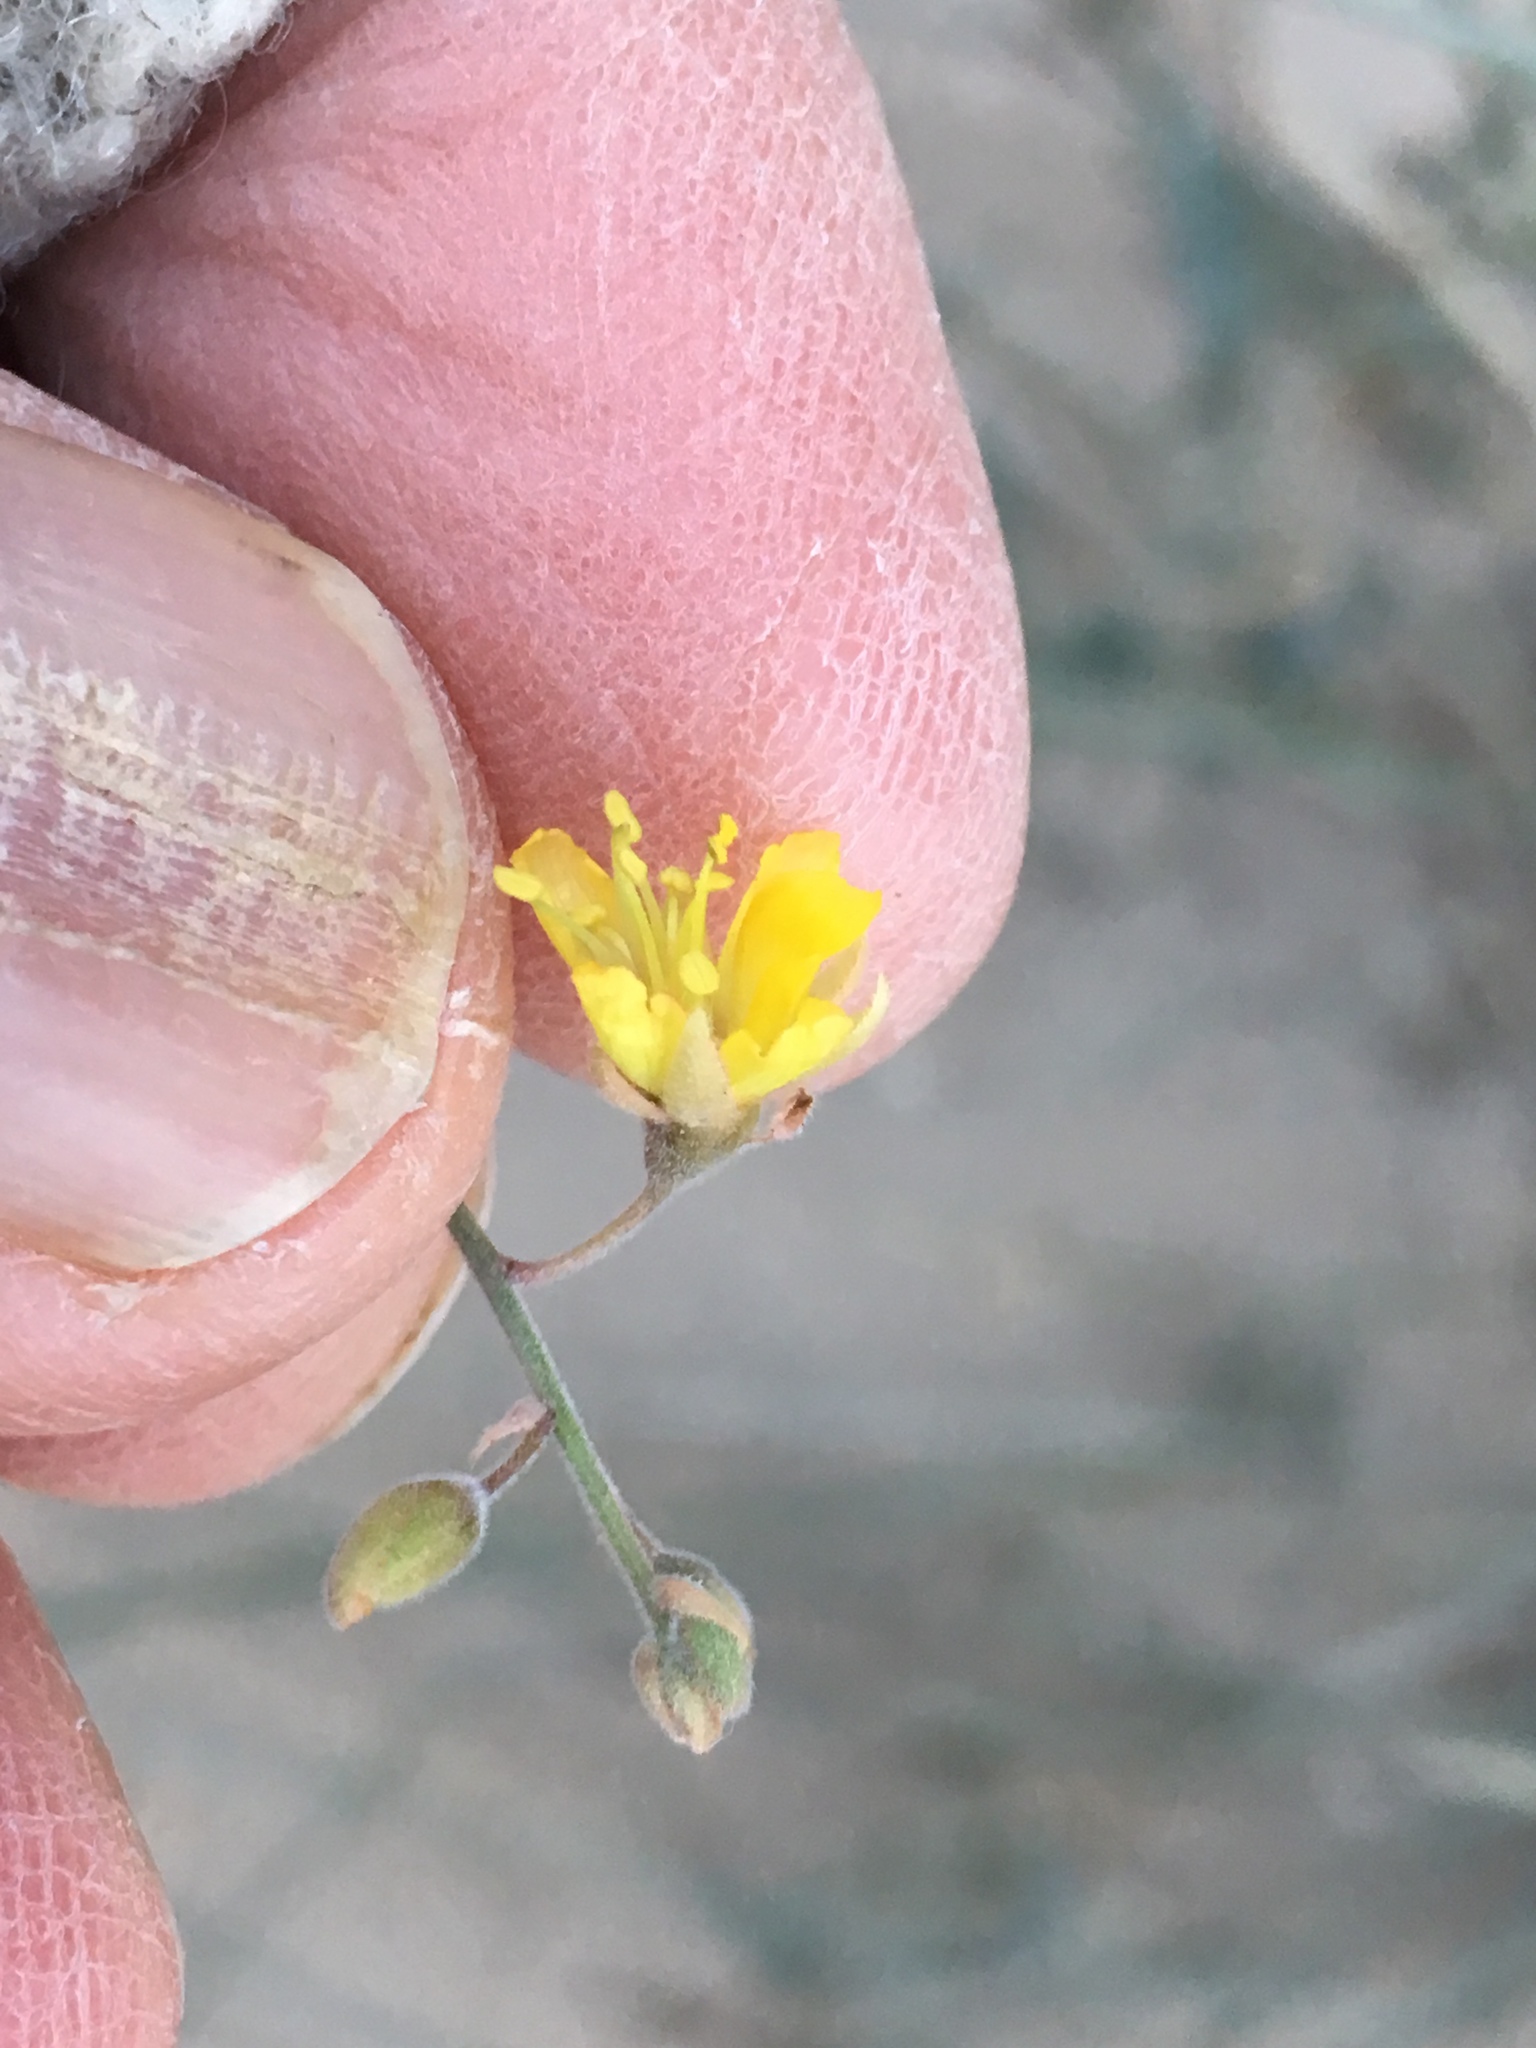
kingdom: Plantae
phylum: Tracheophyta
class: Magnoliopsida
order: Fabales
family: Fabaceae
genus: Hoffmannseggia
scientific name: Hoffmannseggia microphylla
